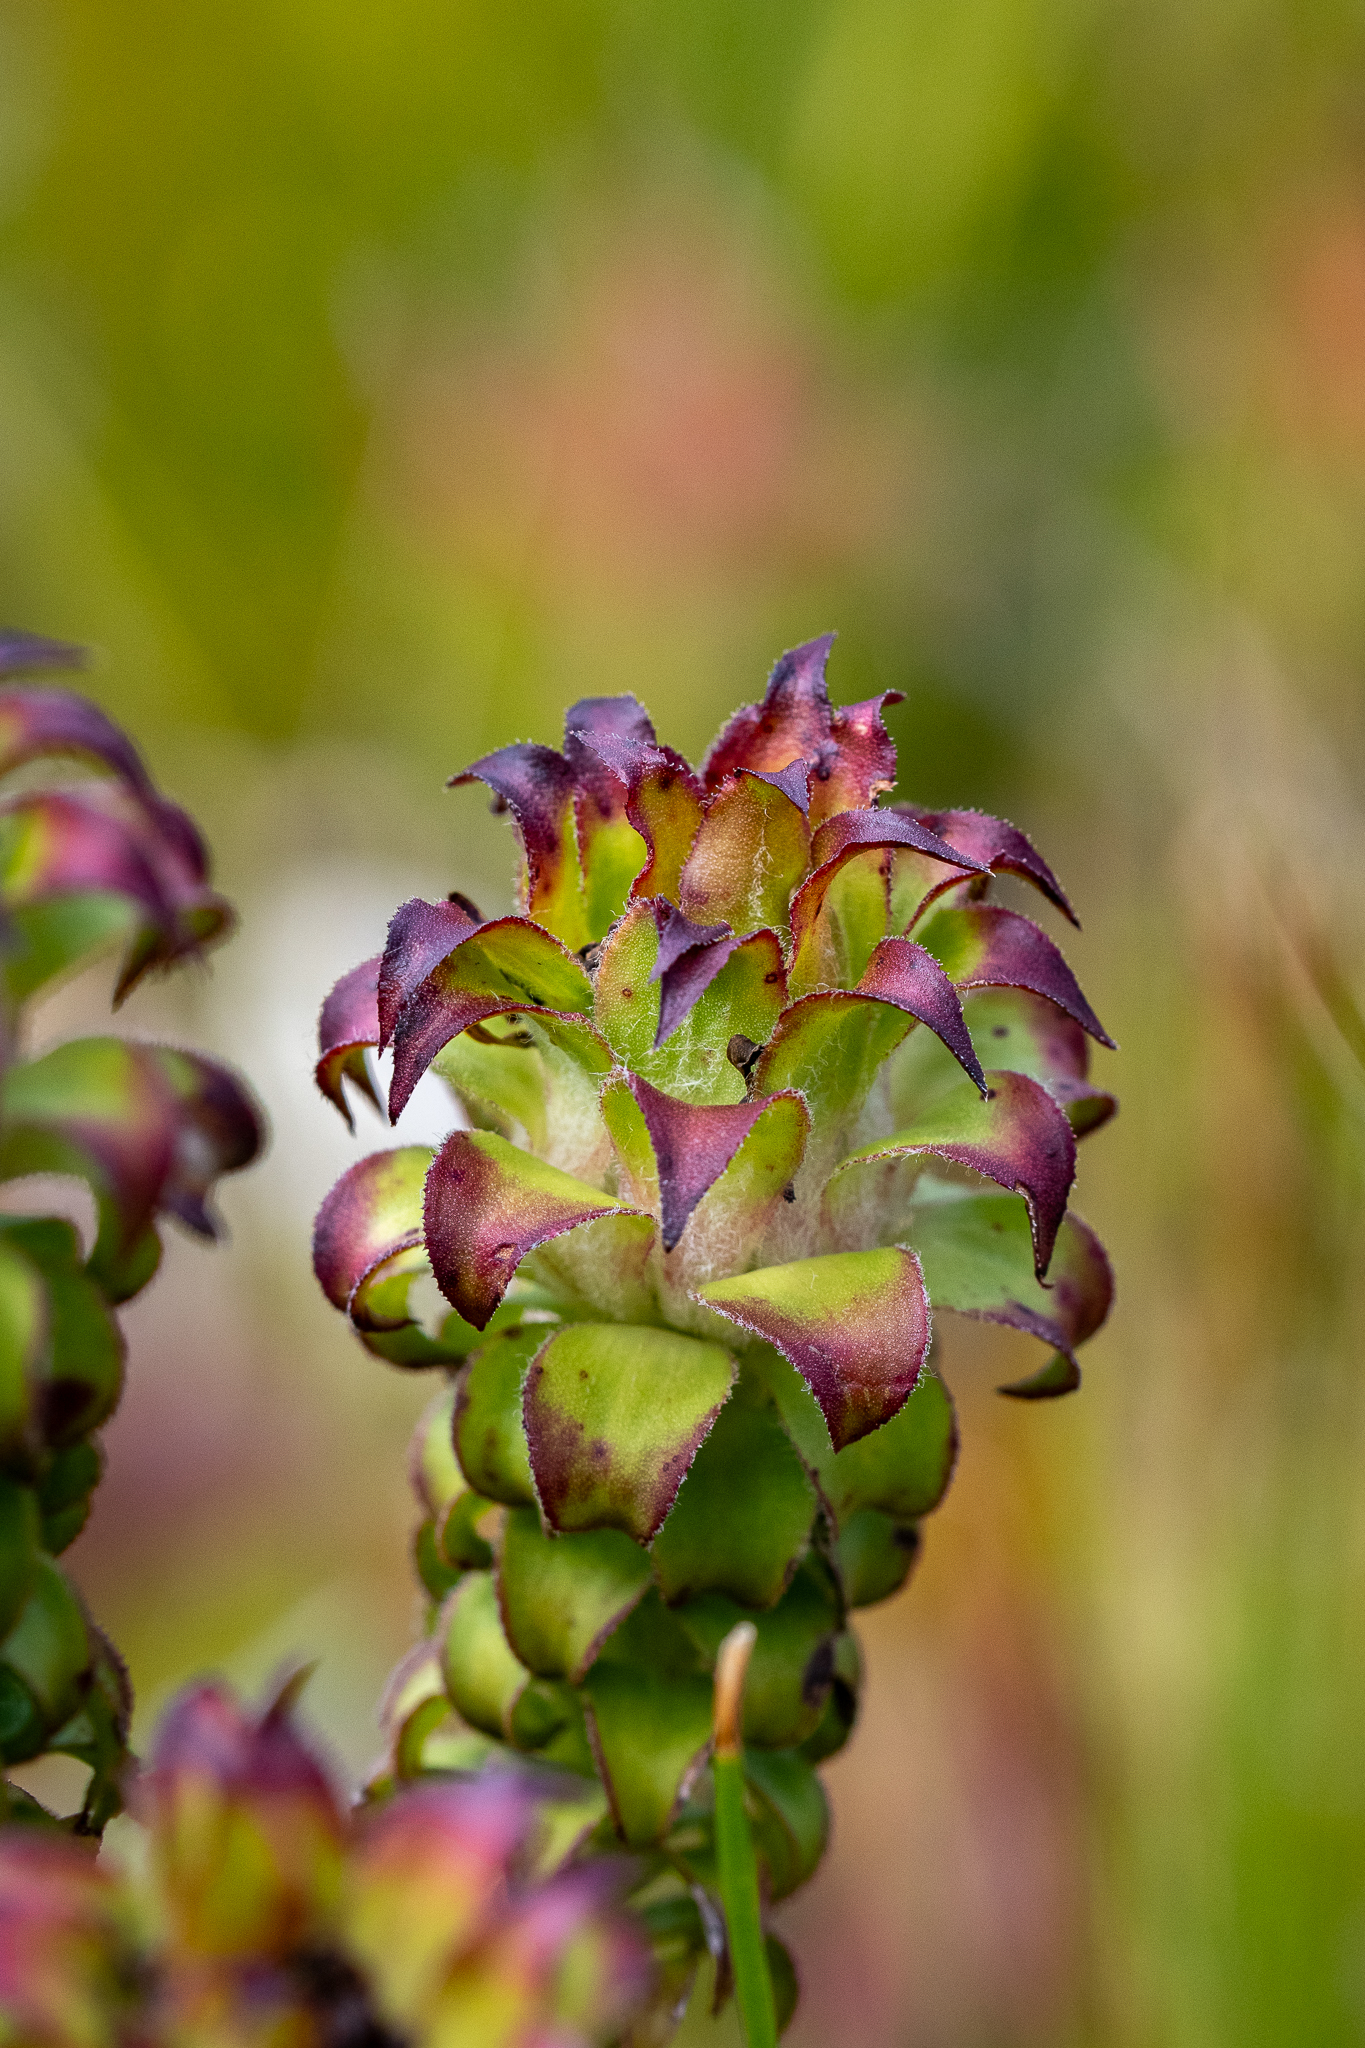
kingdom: Plantae
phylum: Tracheophyta
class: Magnoliopsida
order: Asterales
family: Asteraceae
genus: Oedera
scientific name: Oedera imbricata
